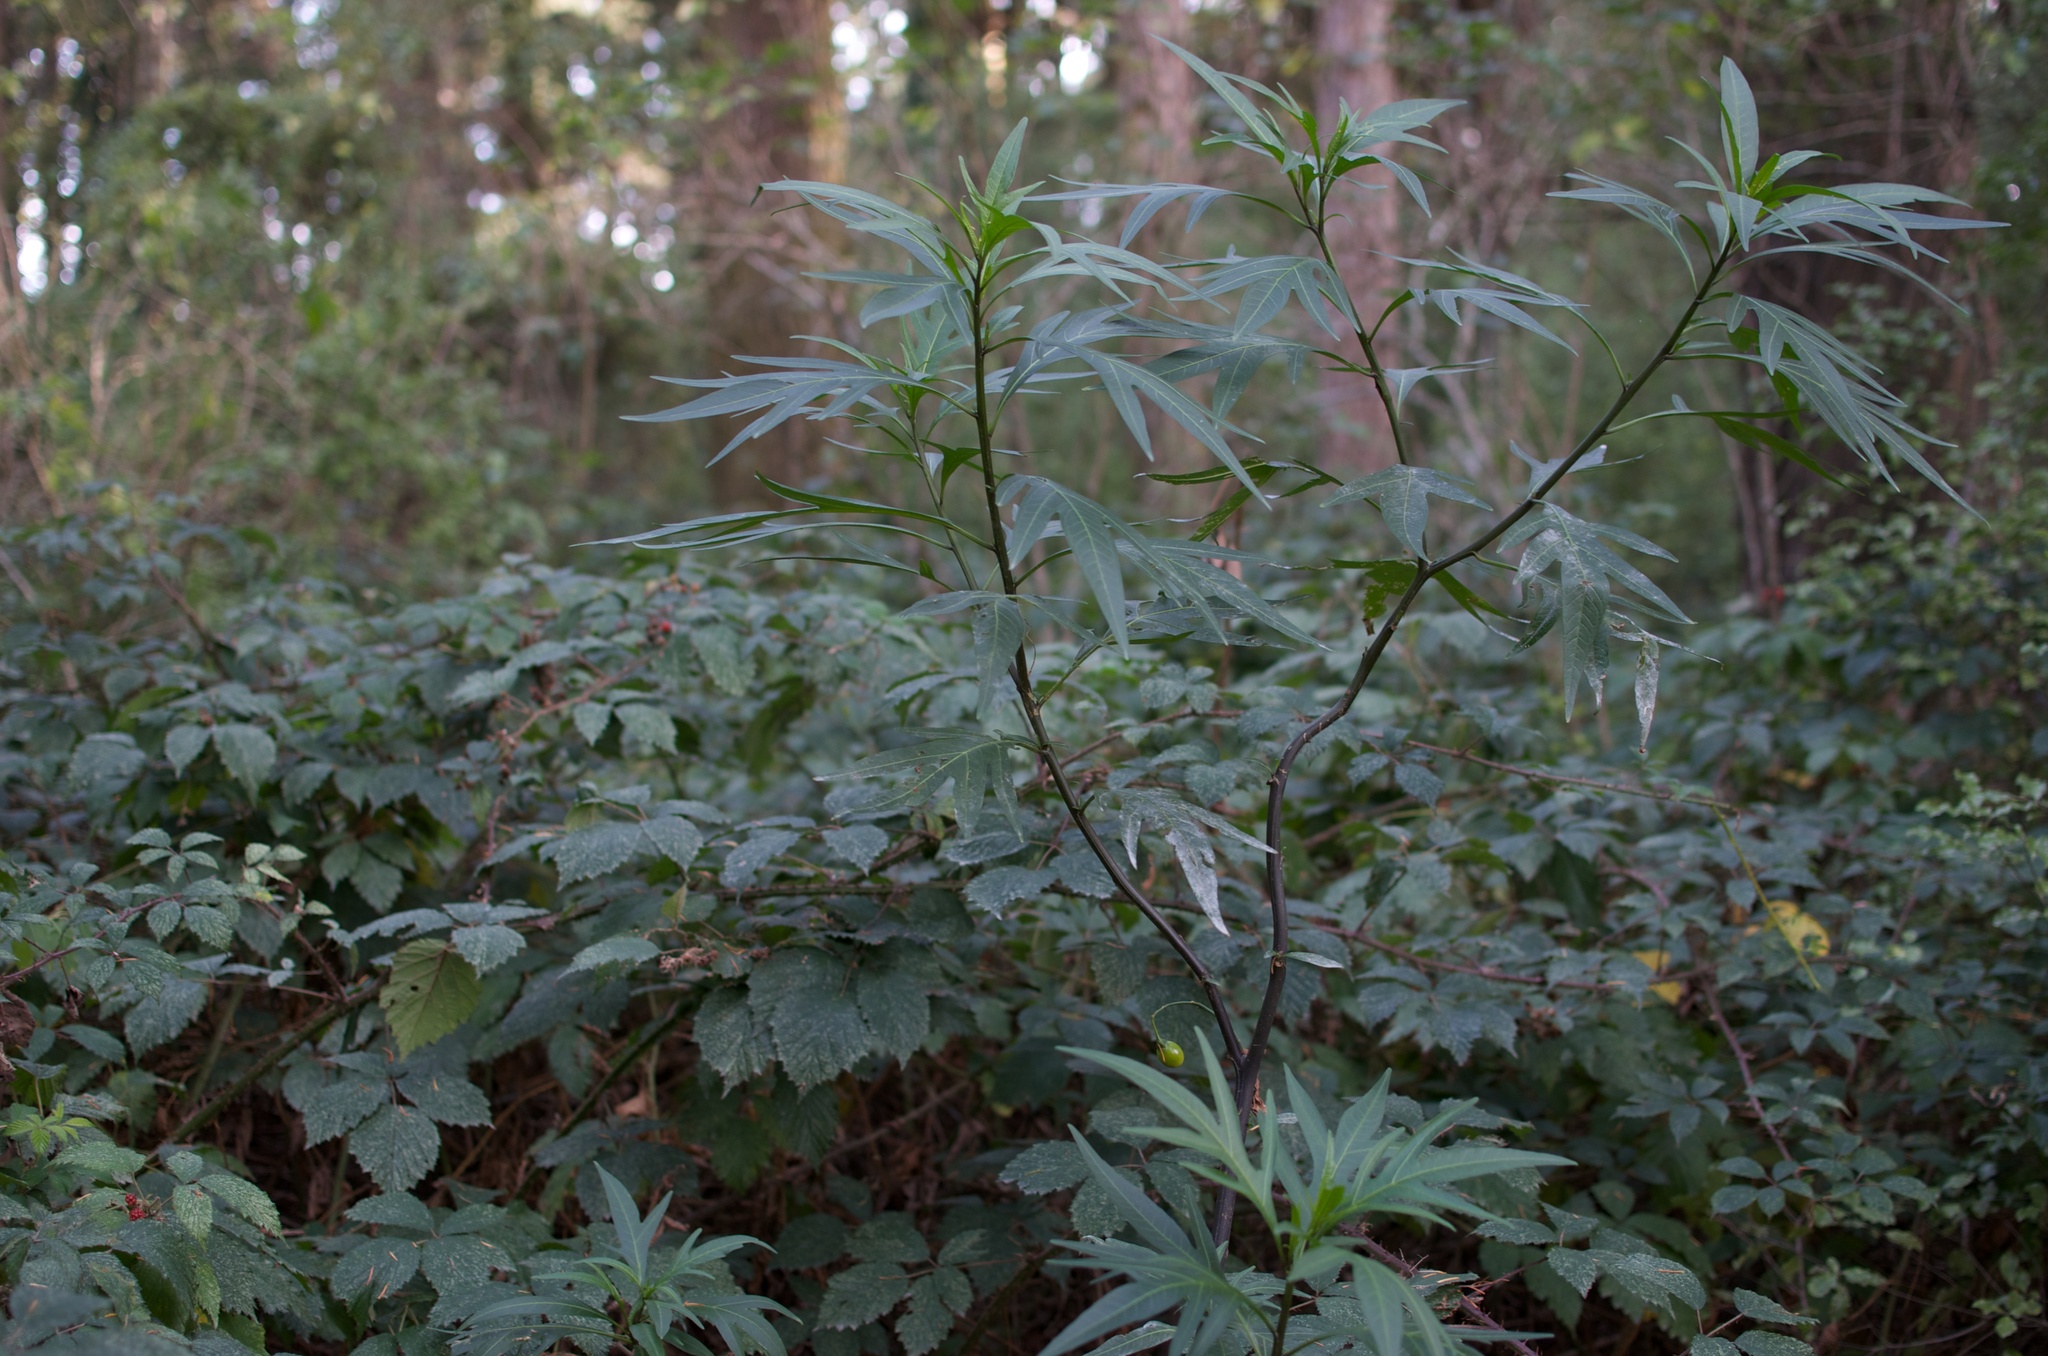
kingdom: Plantae
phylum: Tracheophyta
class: Magnoliopsida
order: Solanales
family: Solanaceae
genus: Solanum
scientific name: Solanum laciniatum
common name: Kangaroo-apple
